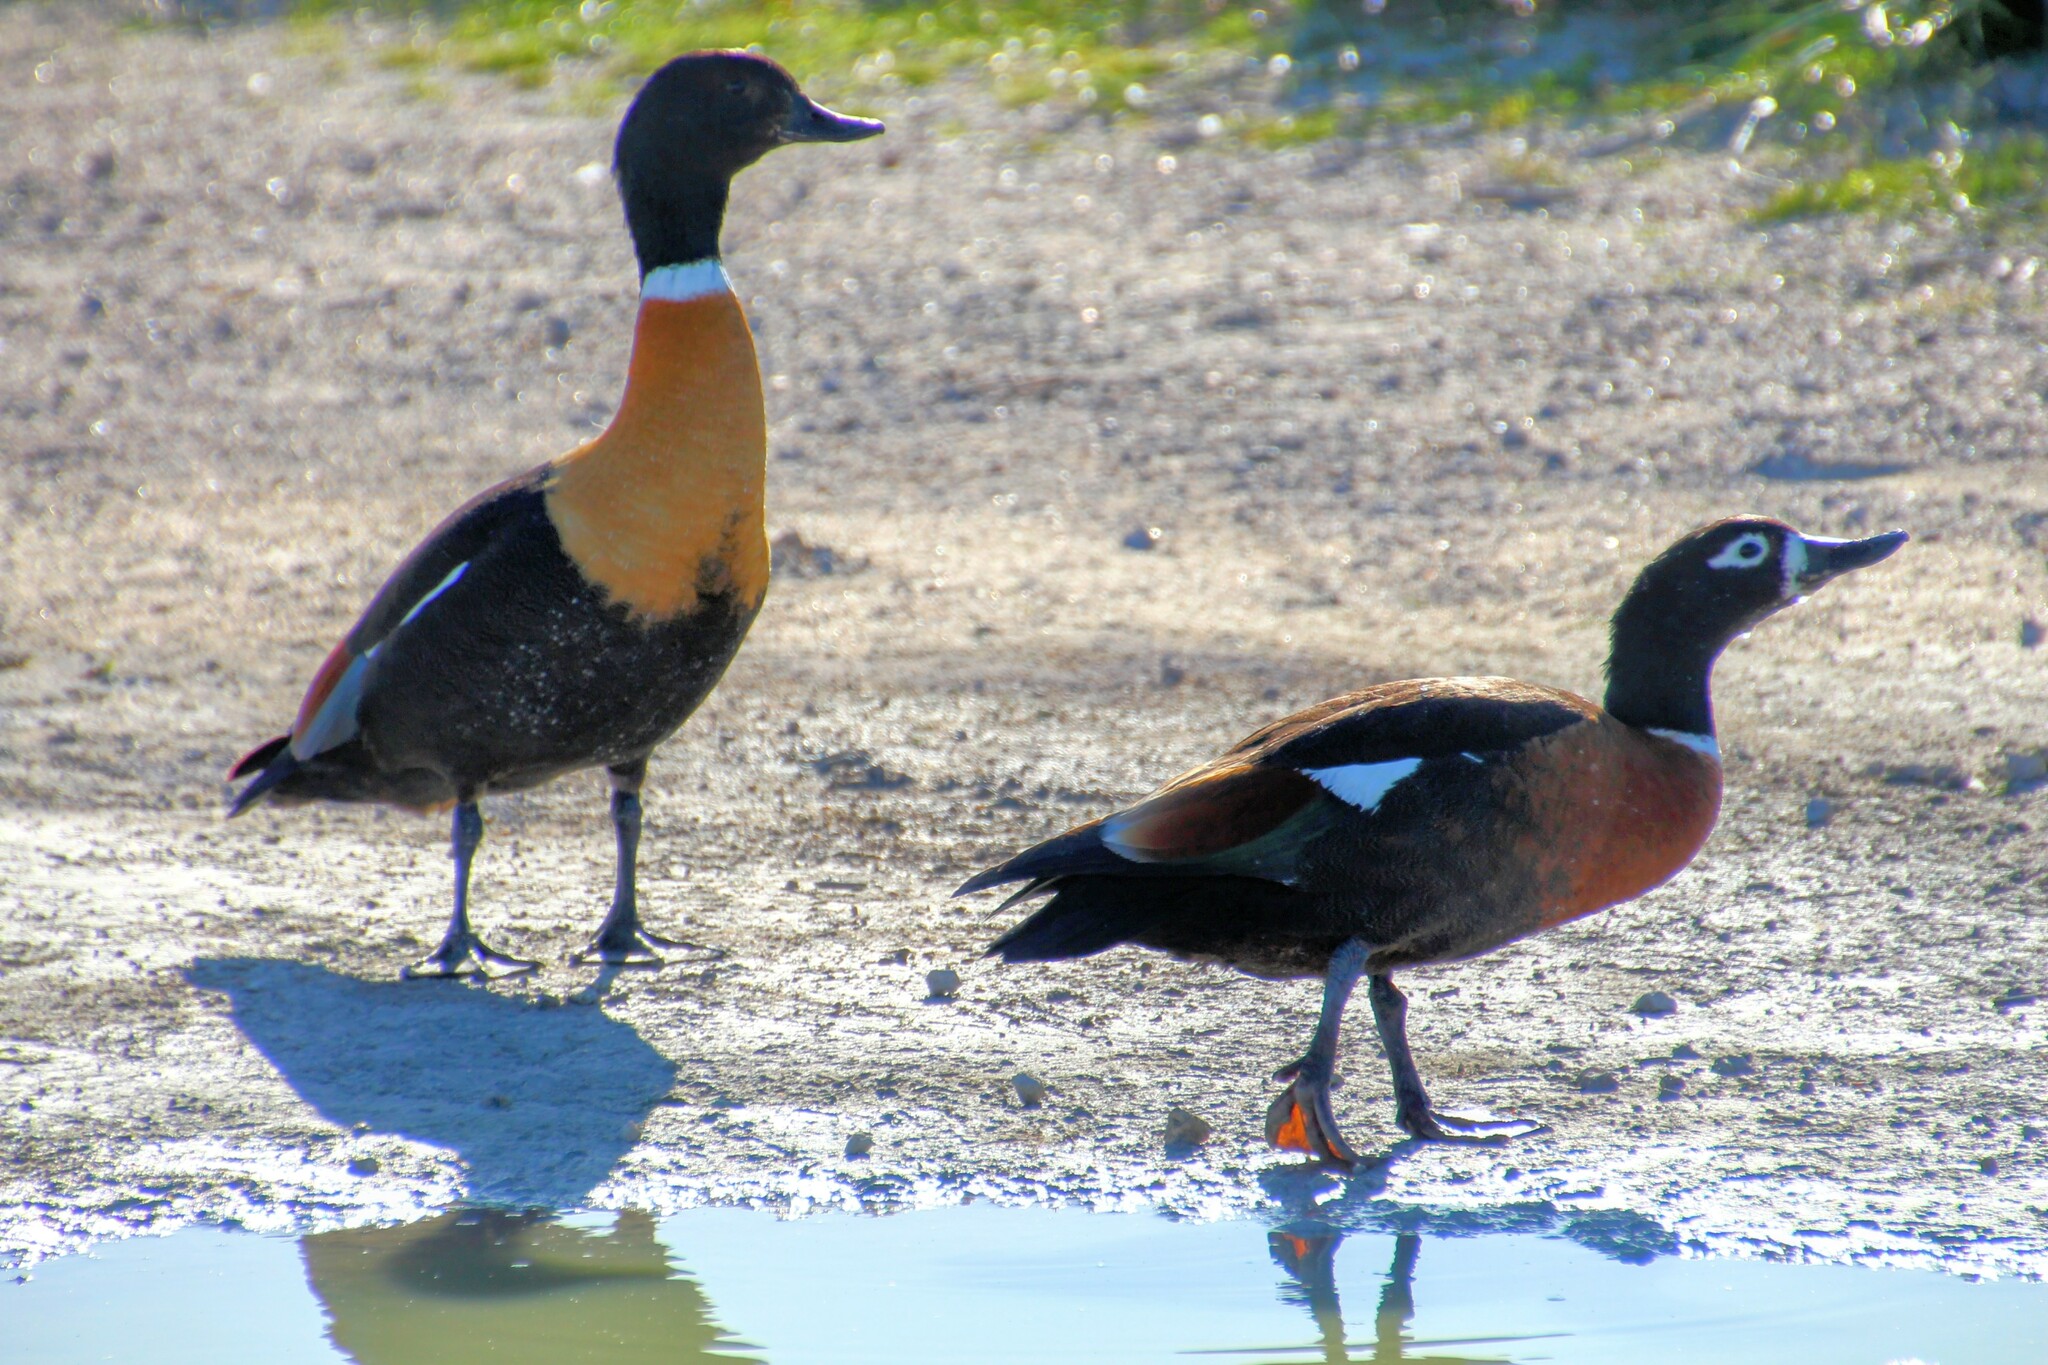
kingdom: Animalia
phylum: Chordata
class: Aves
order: Anseriformes
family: Anatidae
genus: Tadorna
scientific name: Tadorna tadornoides
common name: Australian shelduck
